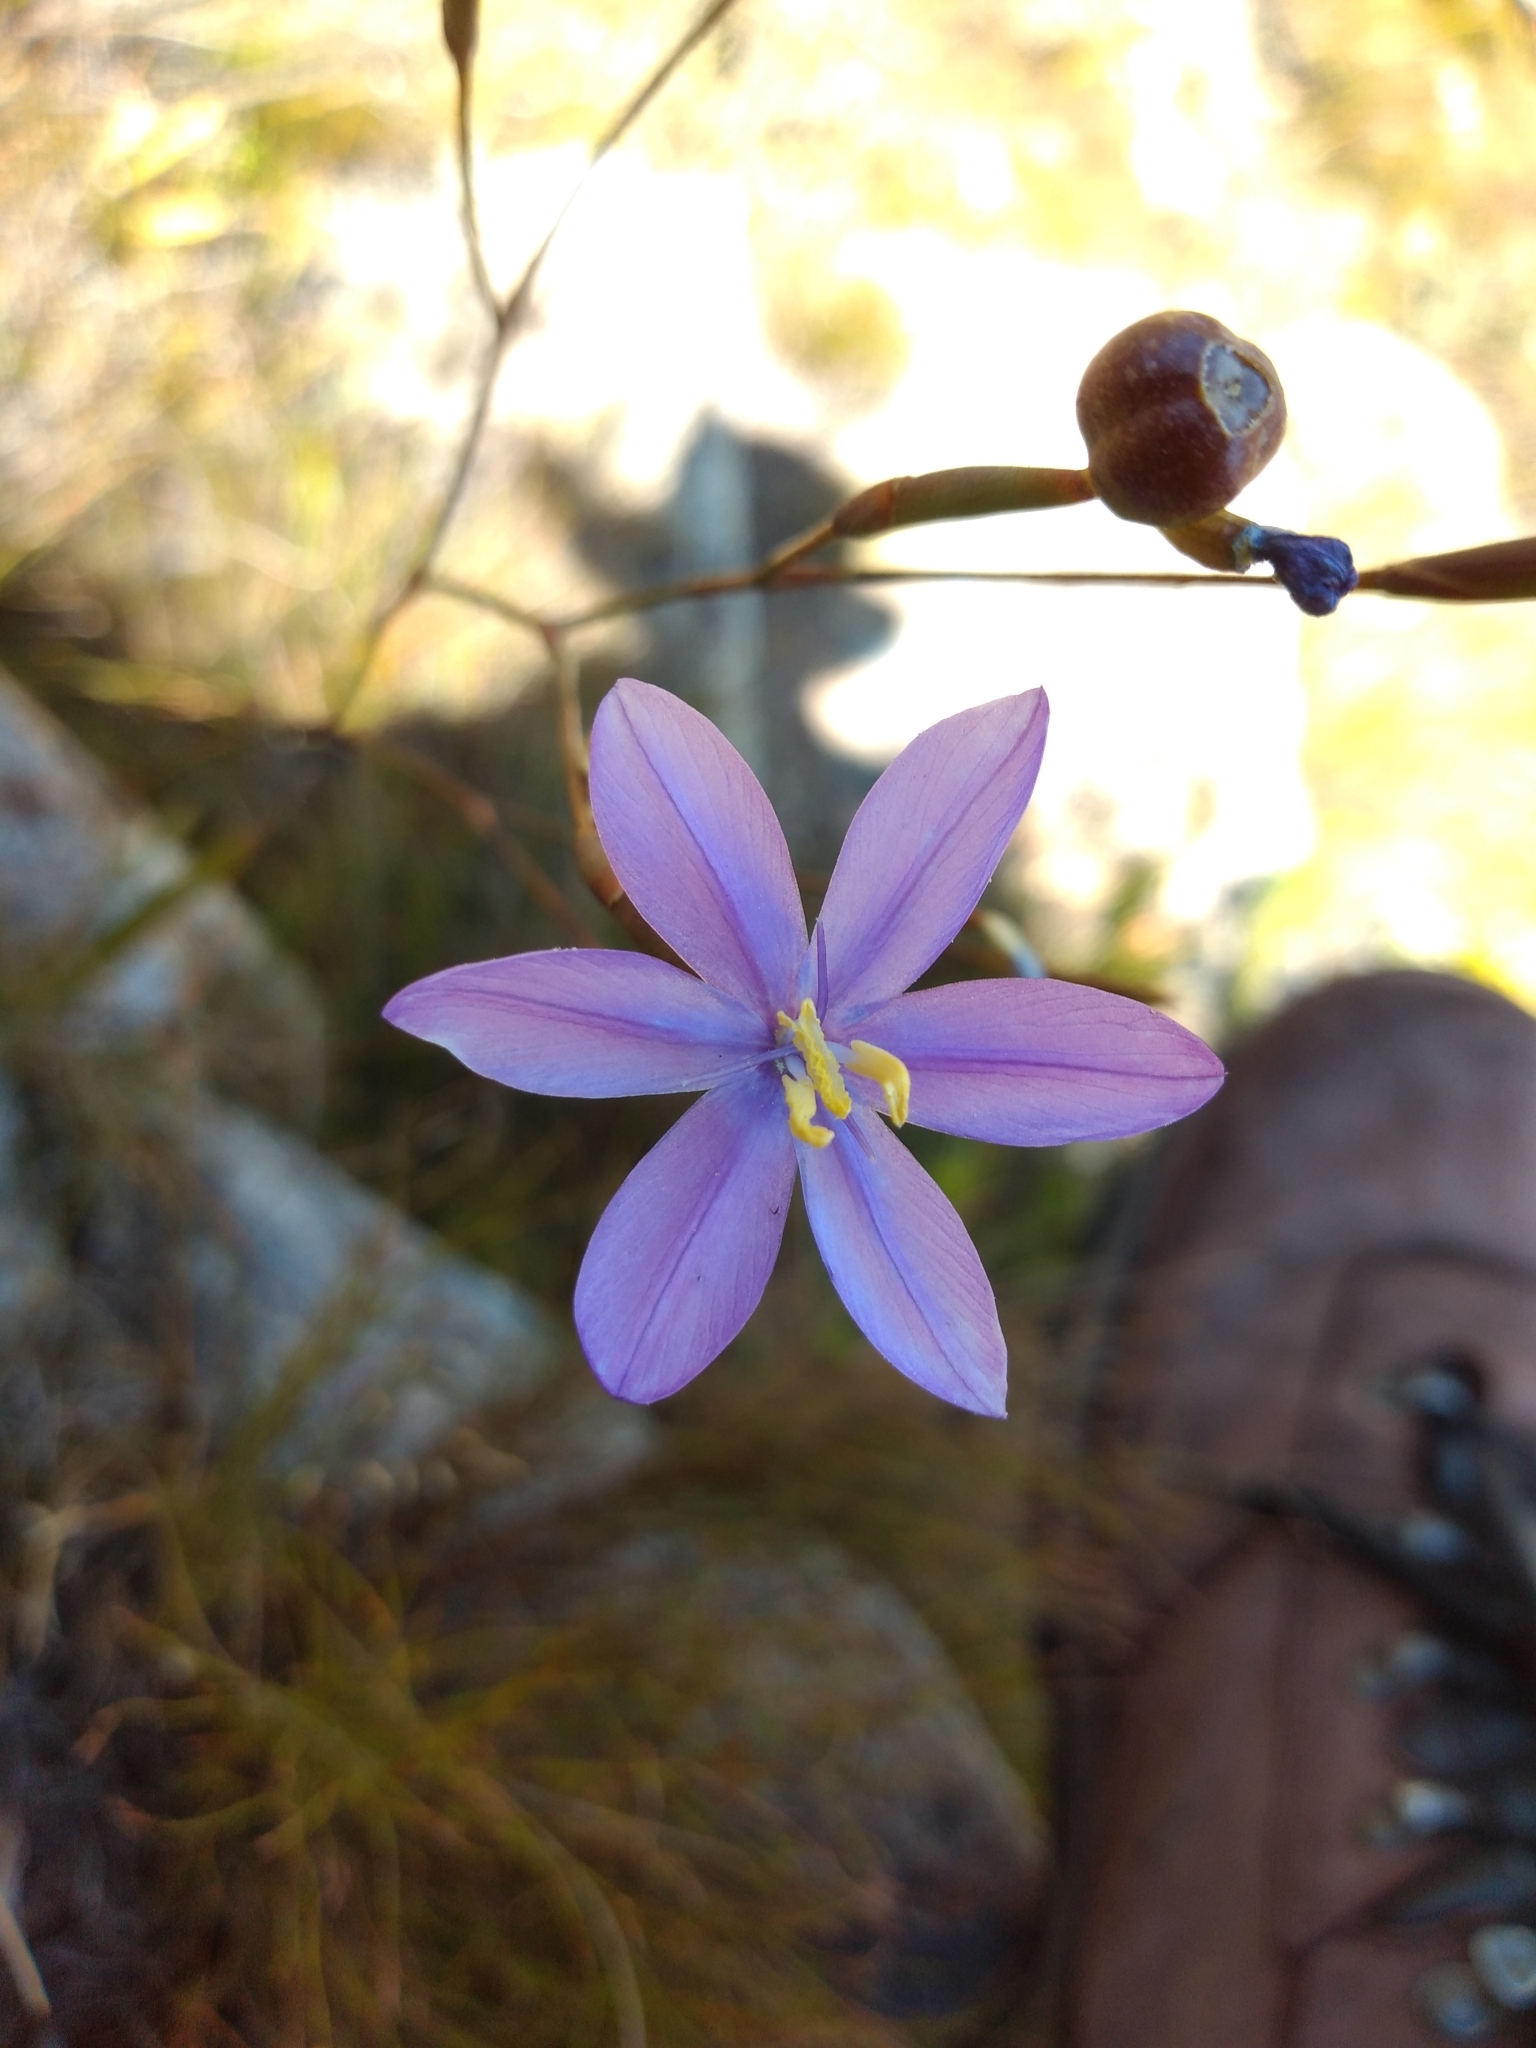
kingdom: Plantae
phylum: Tracheophyta
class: Liliopsida
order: Asparagales
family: Iridaceae
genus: Bobartia
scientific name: Bobartia lilacina
